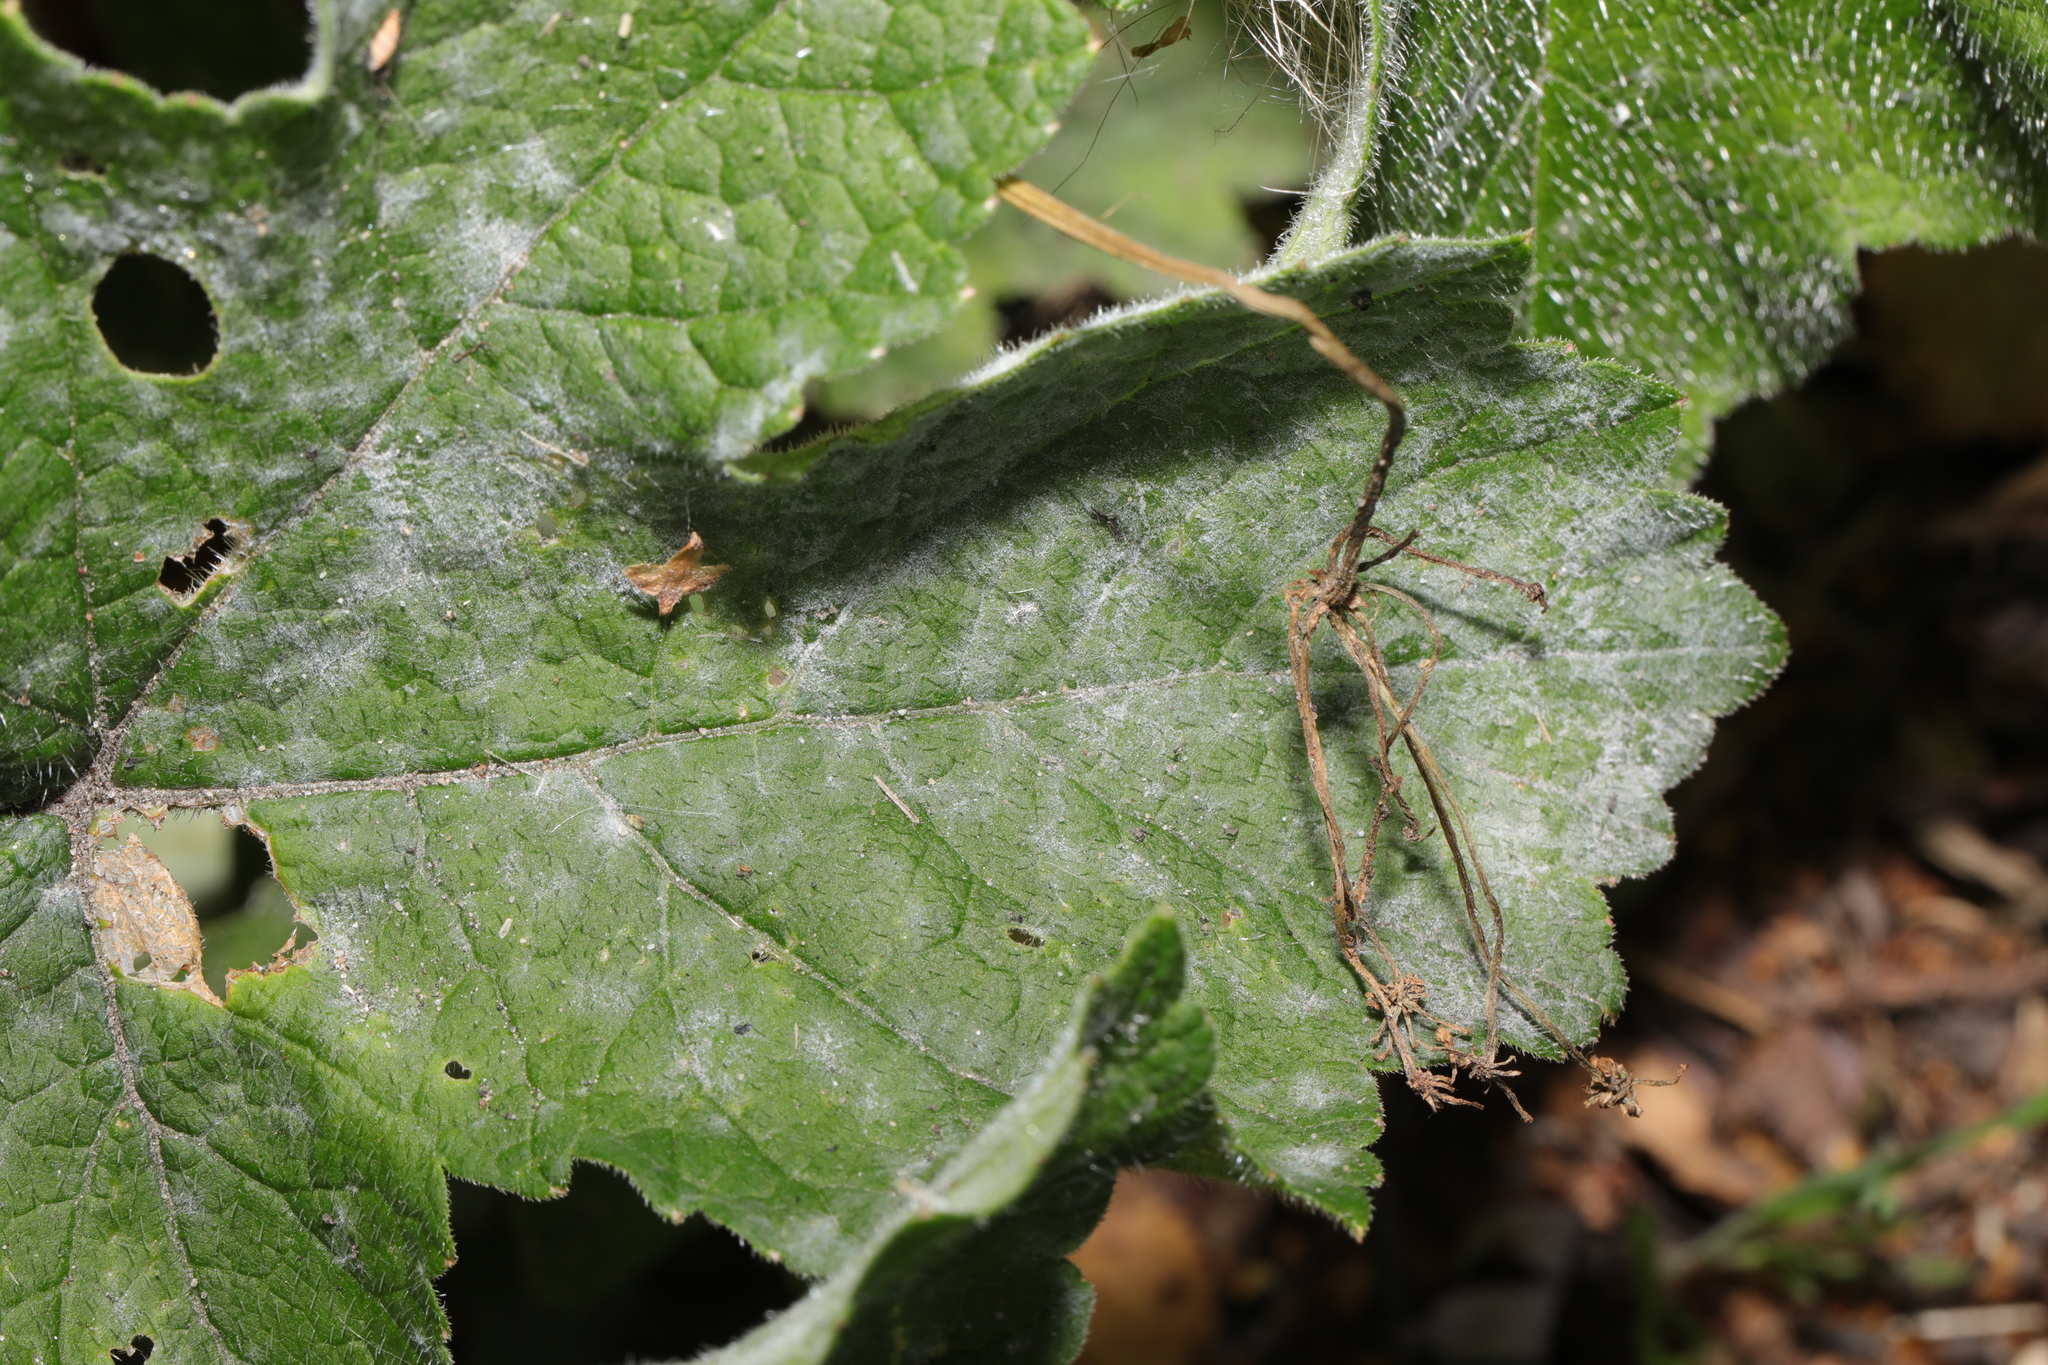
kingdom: Fungi
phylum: Ascomycota
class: Leotiomycetes
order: Helotiales
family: Erysiphaceae
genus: Erysiphe
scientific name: Erysiphe heraclei
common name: Umbellifer mildew
